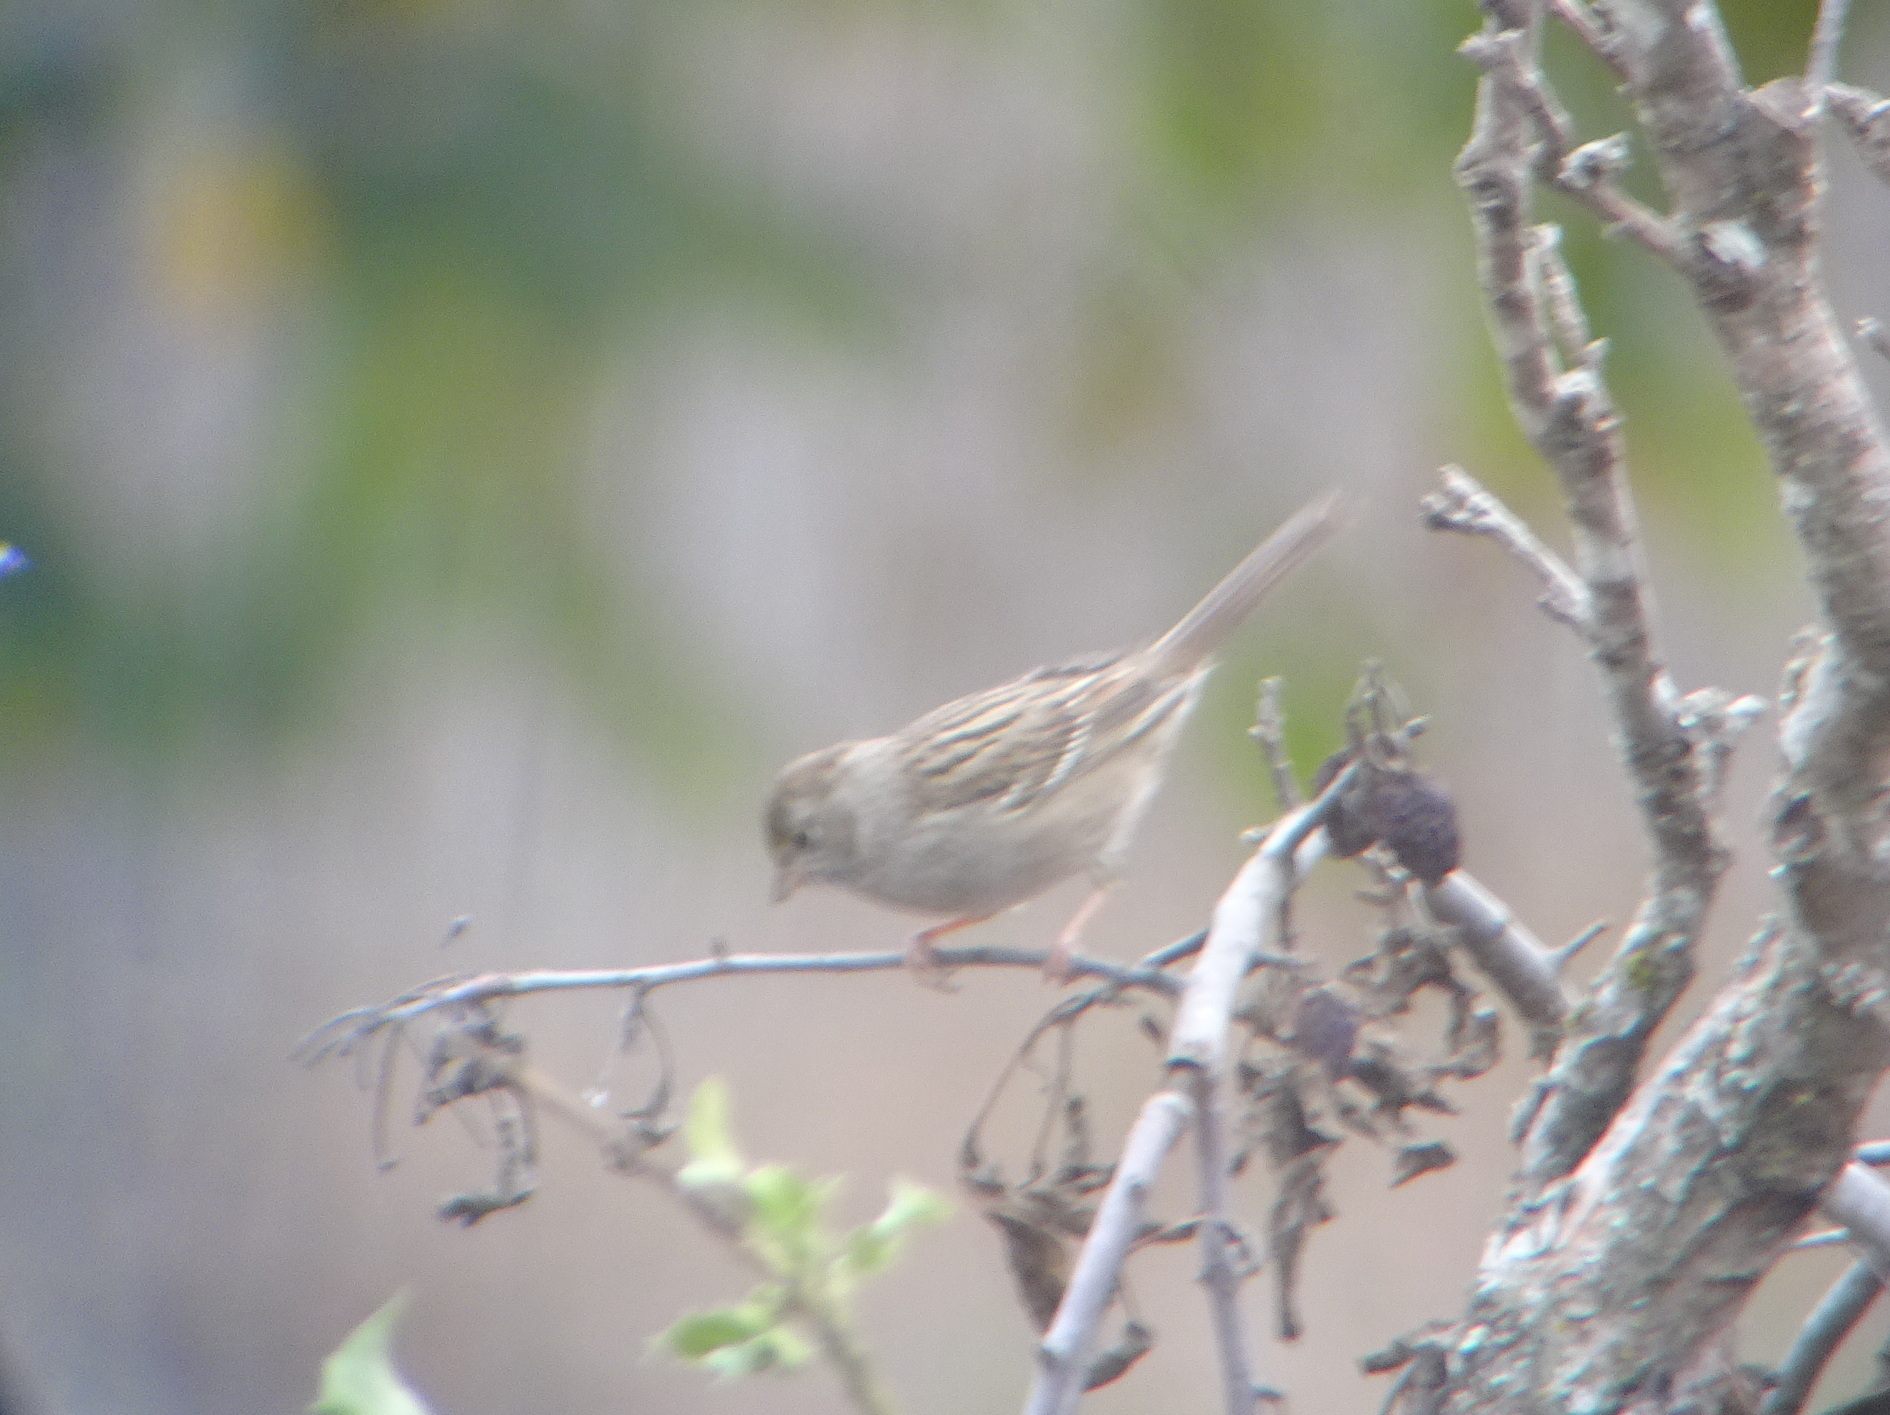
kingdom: Animalia
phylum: Chordata
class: Aves
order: Passeriformes
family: Passerellidae
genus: Zonotrichia
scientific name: Zonotrichia atricapilla
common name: Golden-crowned sparrow
